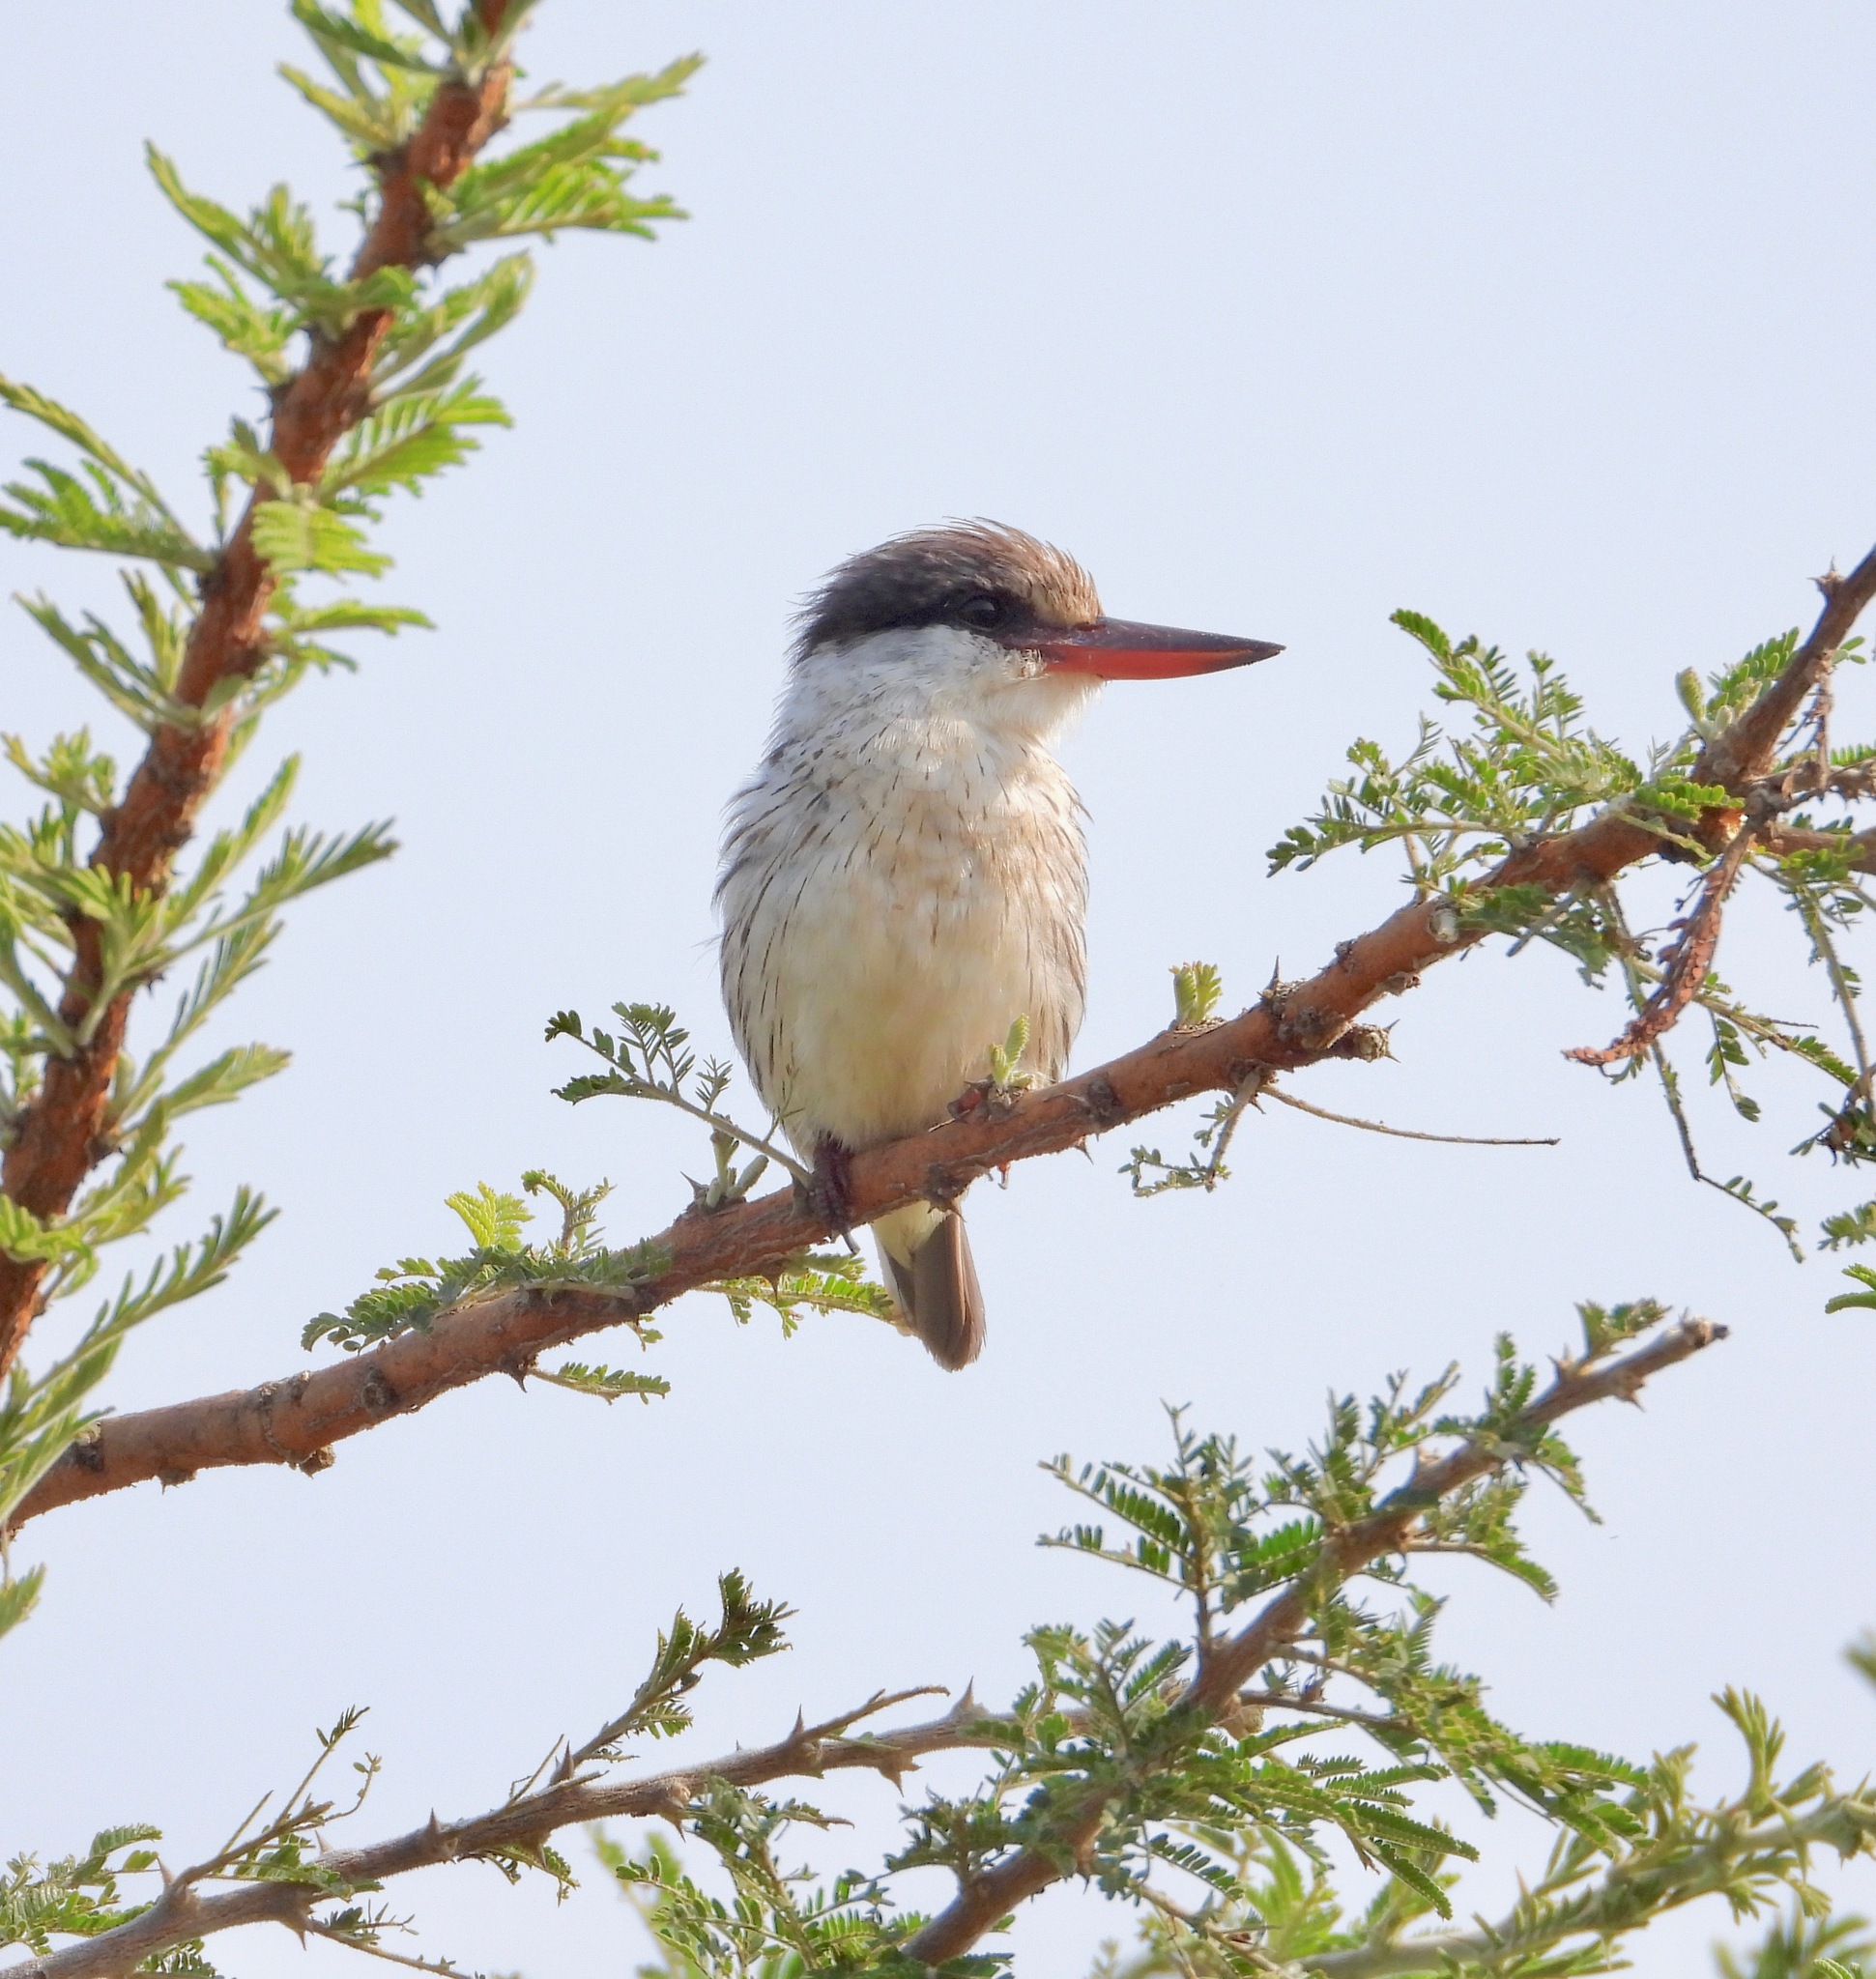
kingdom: Animalia
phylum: Chordata
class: Aves
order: Coraciiformes
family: Alcedinidae
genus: Halcyon
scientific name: Halcyon chelicuti
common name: Striped kingfisher
